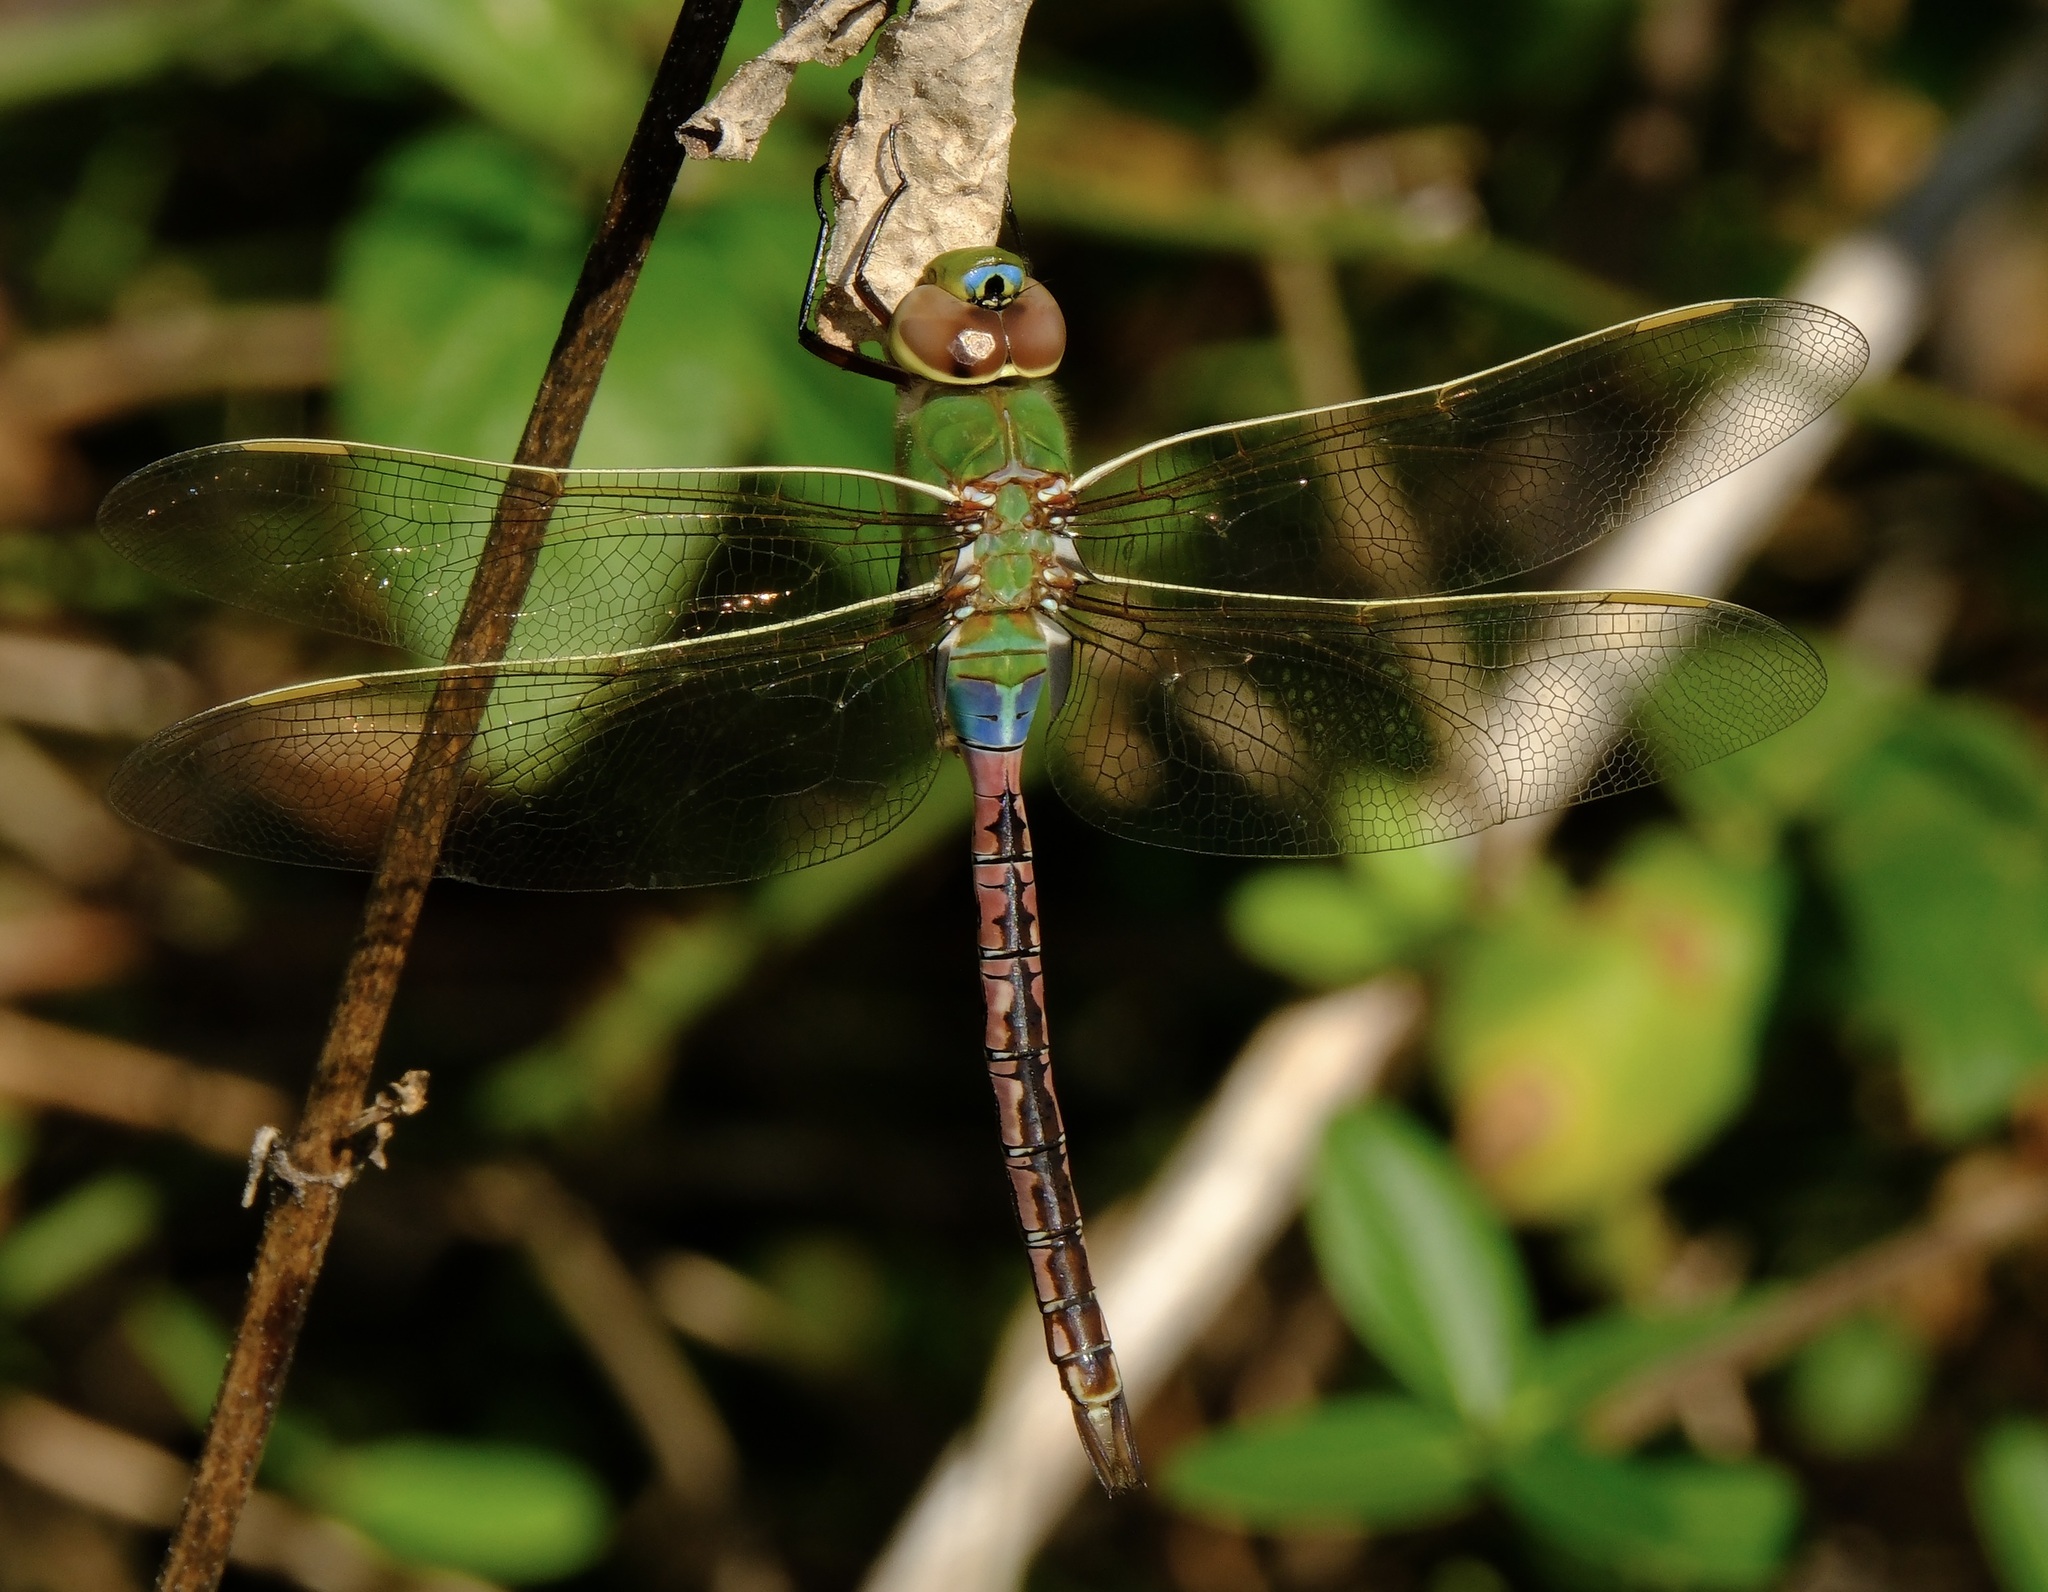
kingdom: Animalia
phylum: Arthropoda
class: Insecta
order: Odonata
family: Aeshnidae
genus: Anax
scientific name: Anax junius
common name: Common green darner
